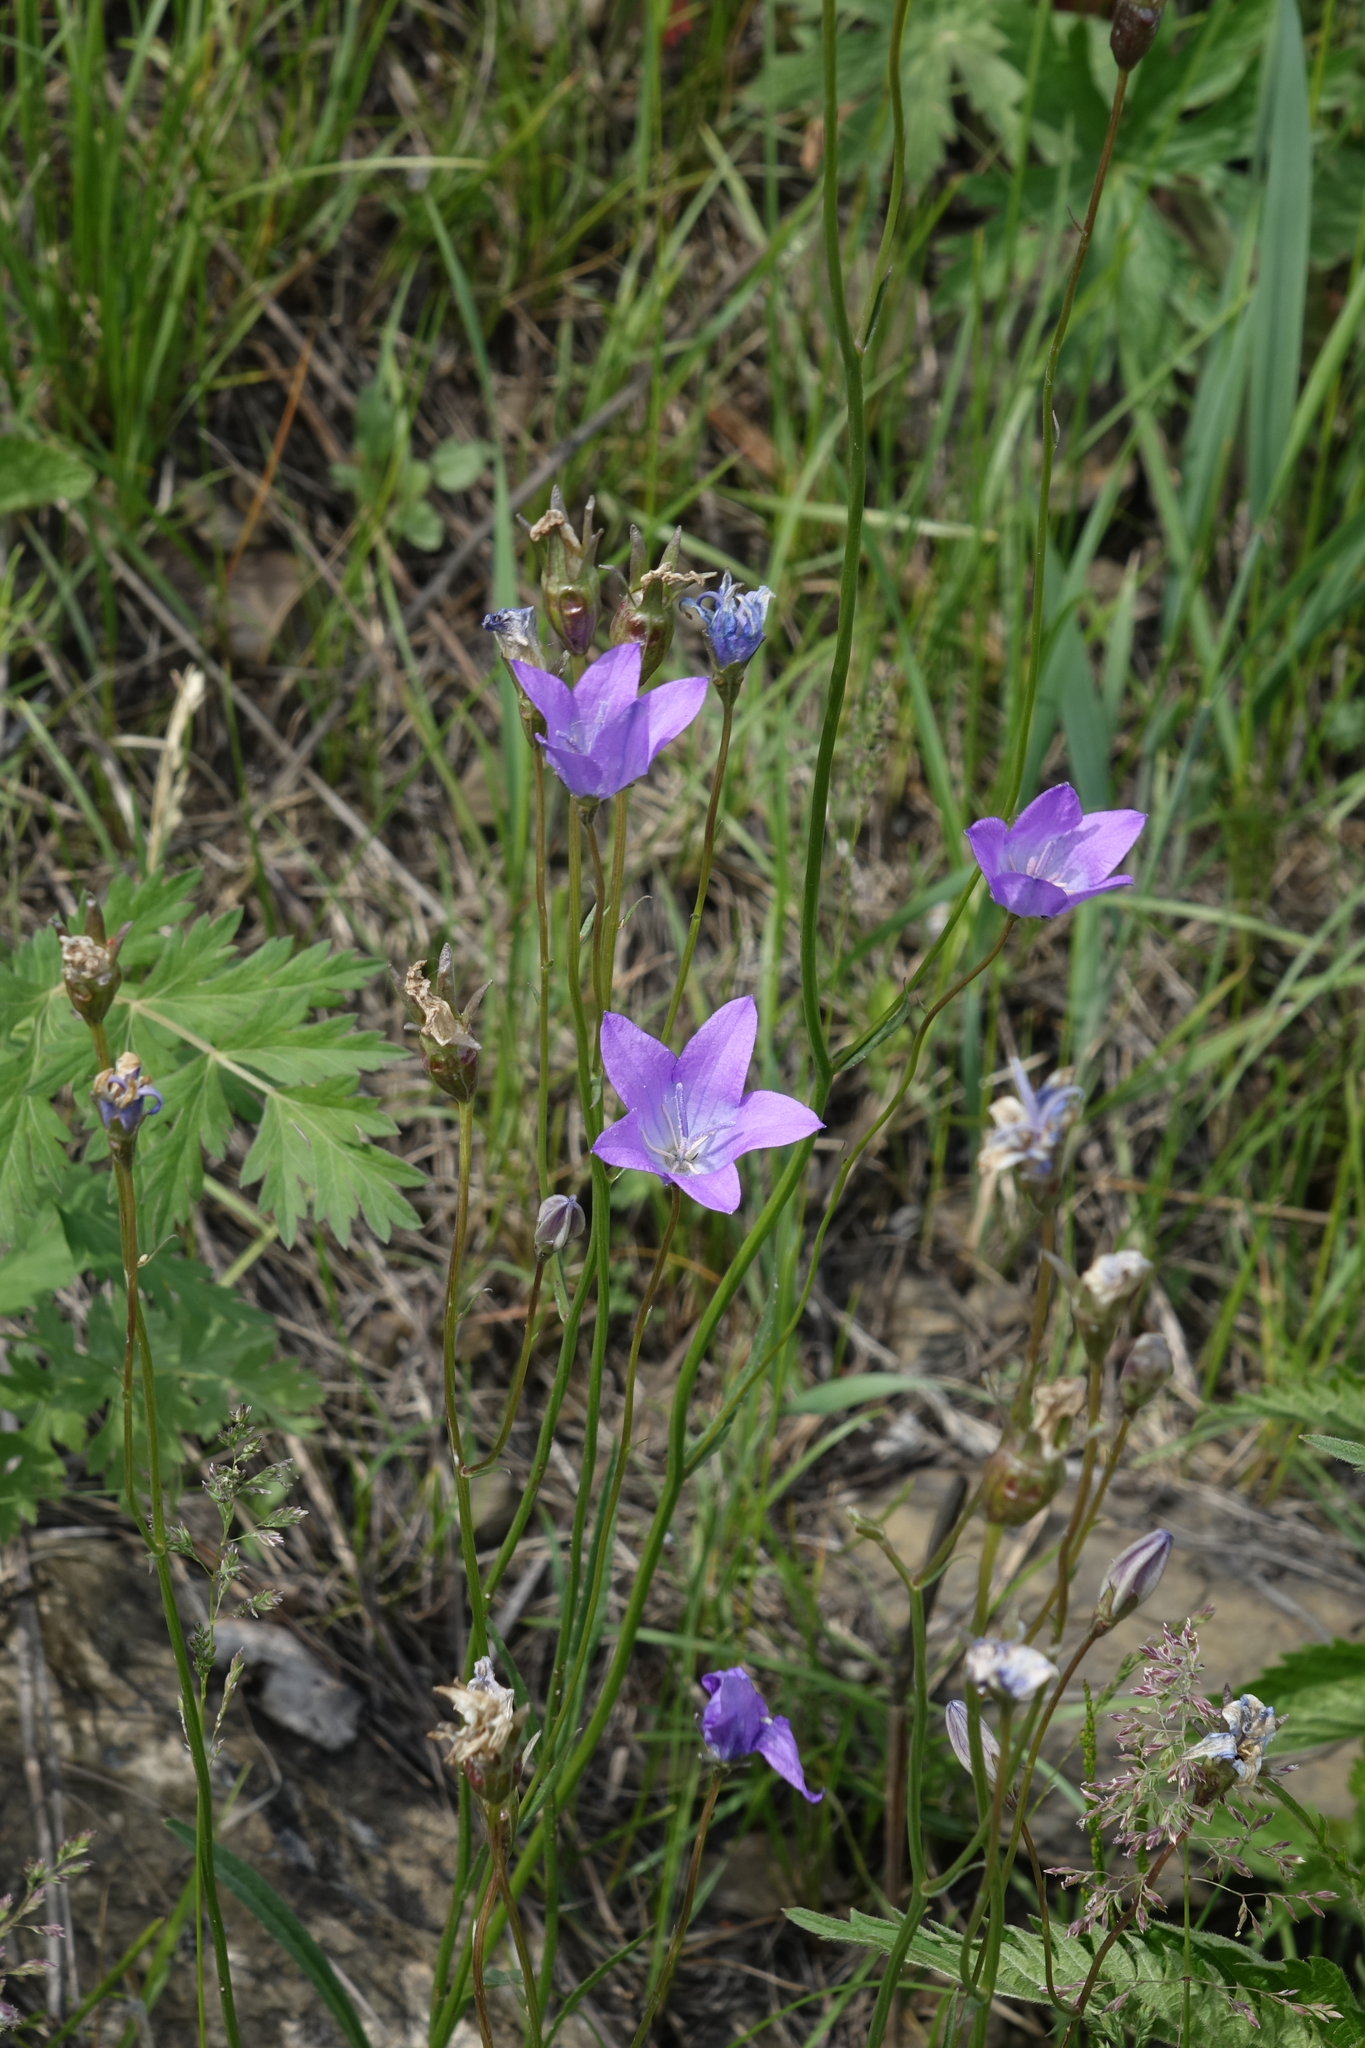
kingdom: Plantae
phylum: Tracheophyta
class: Magnoliopsida
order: Asterales
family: Campanulaceae
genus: Campanula
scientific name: Campanula stevenii
